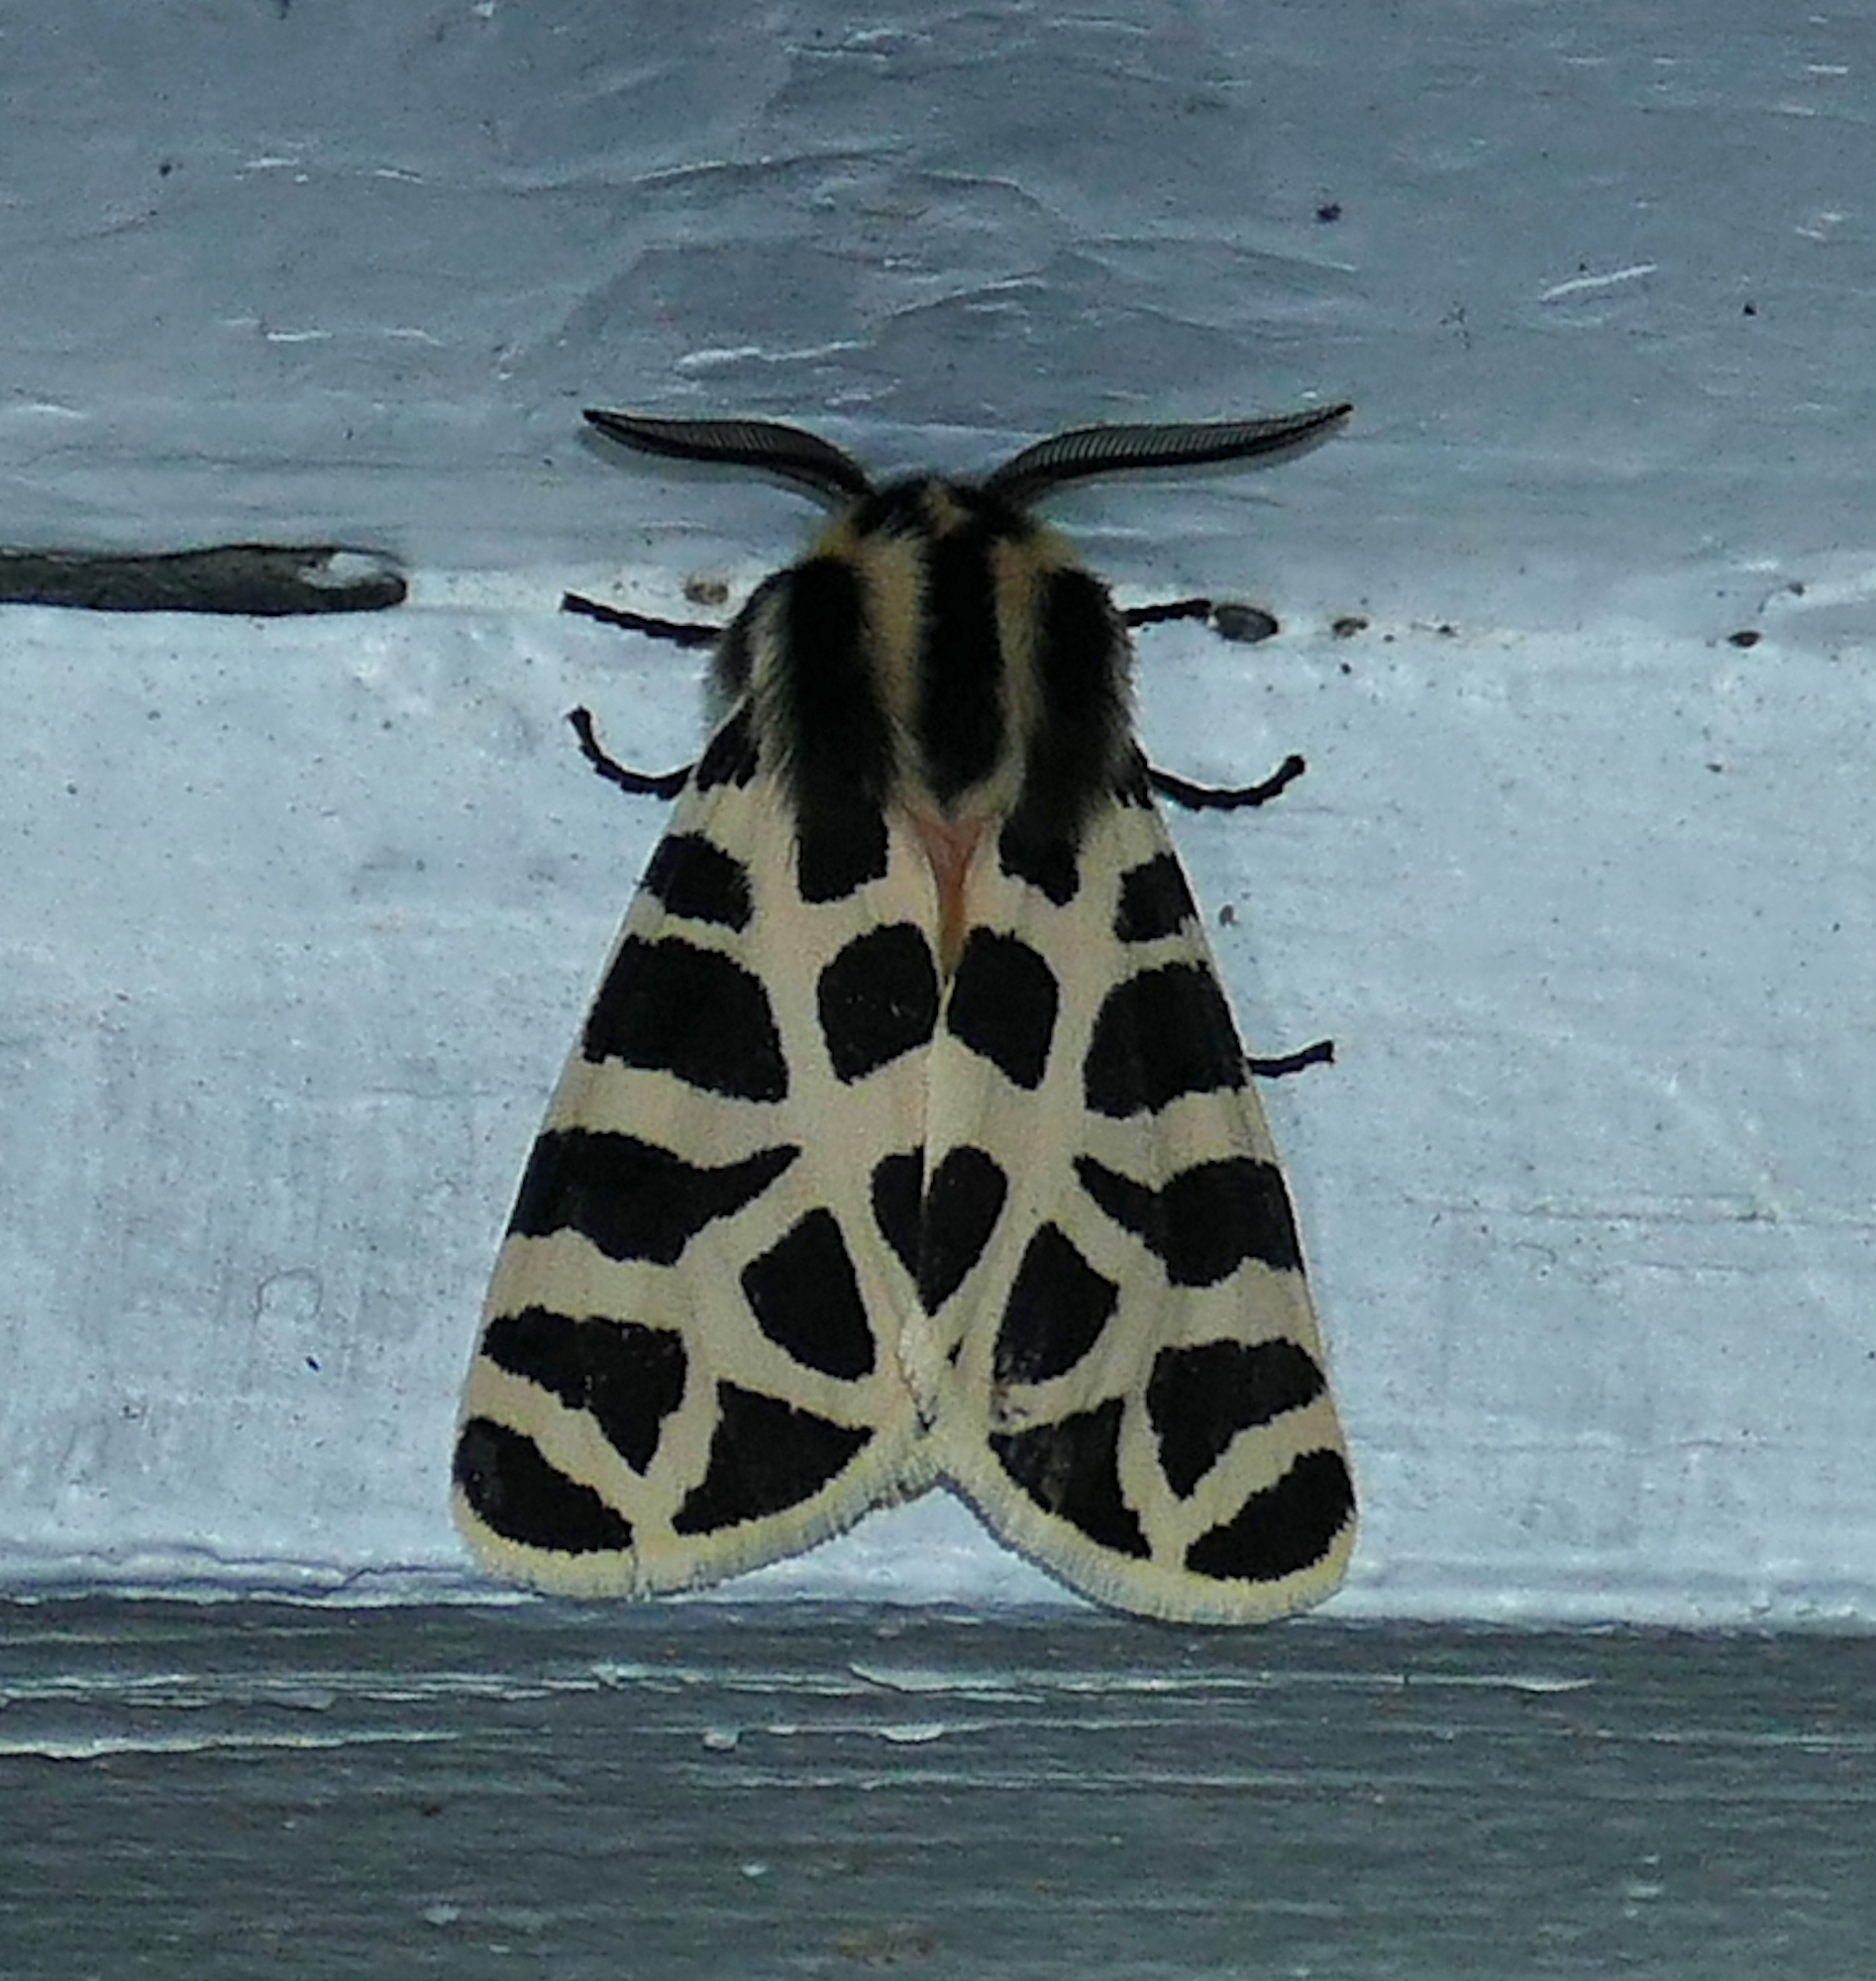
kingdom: Animalia
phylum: Arthropoda
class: Insecta
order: Lepidoptera
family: Erebidae
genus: Apantesis
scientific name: Apantesis incorrupta
